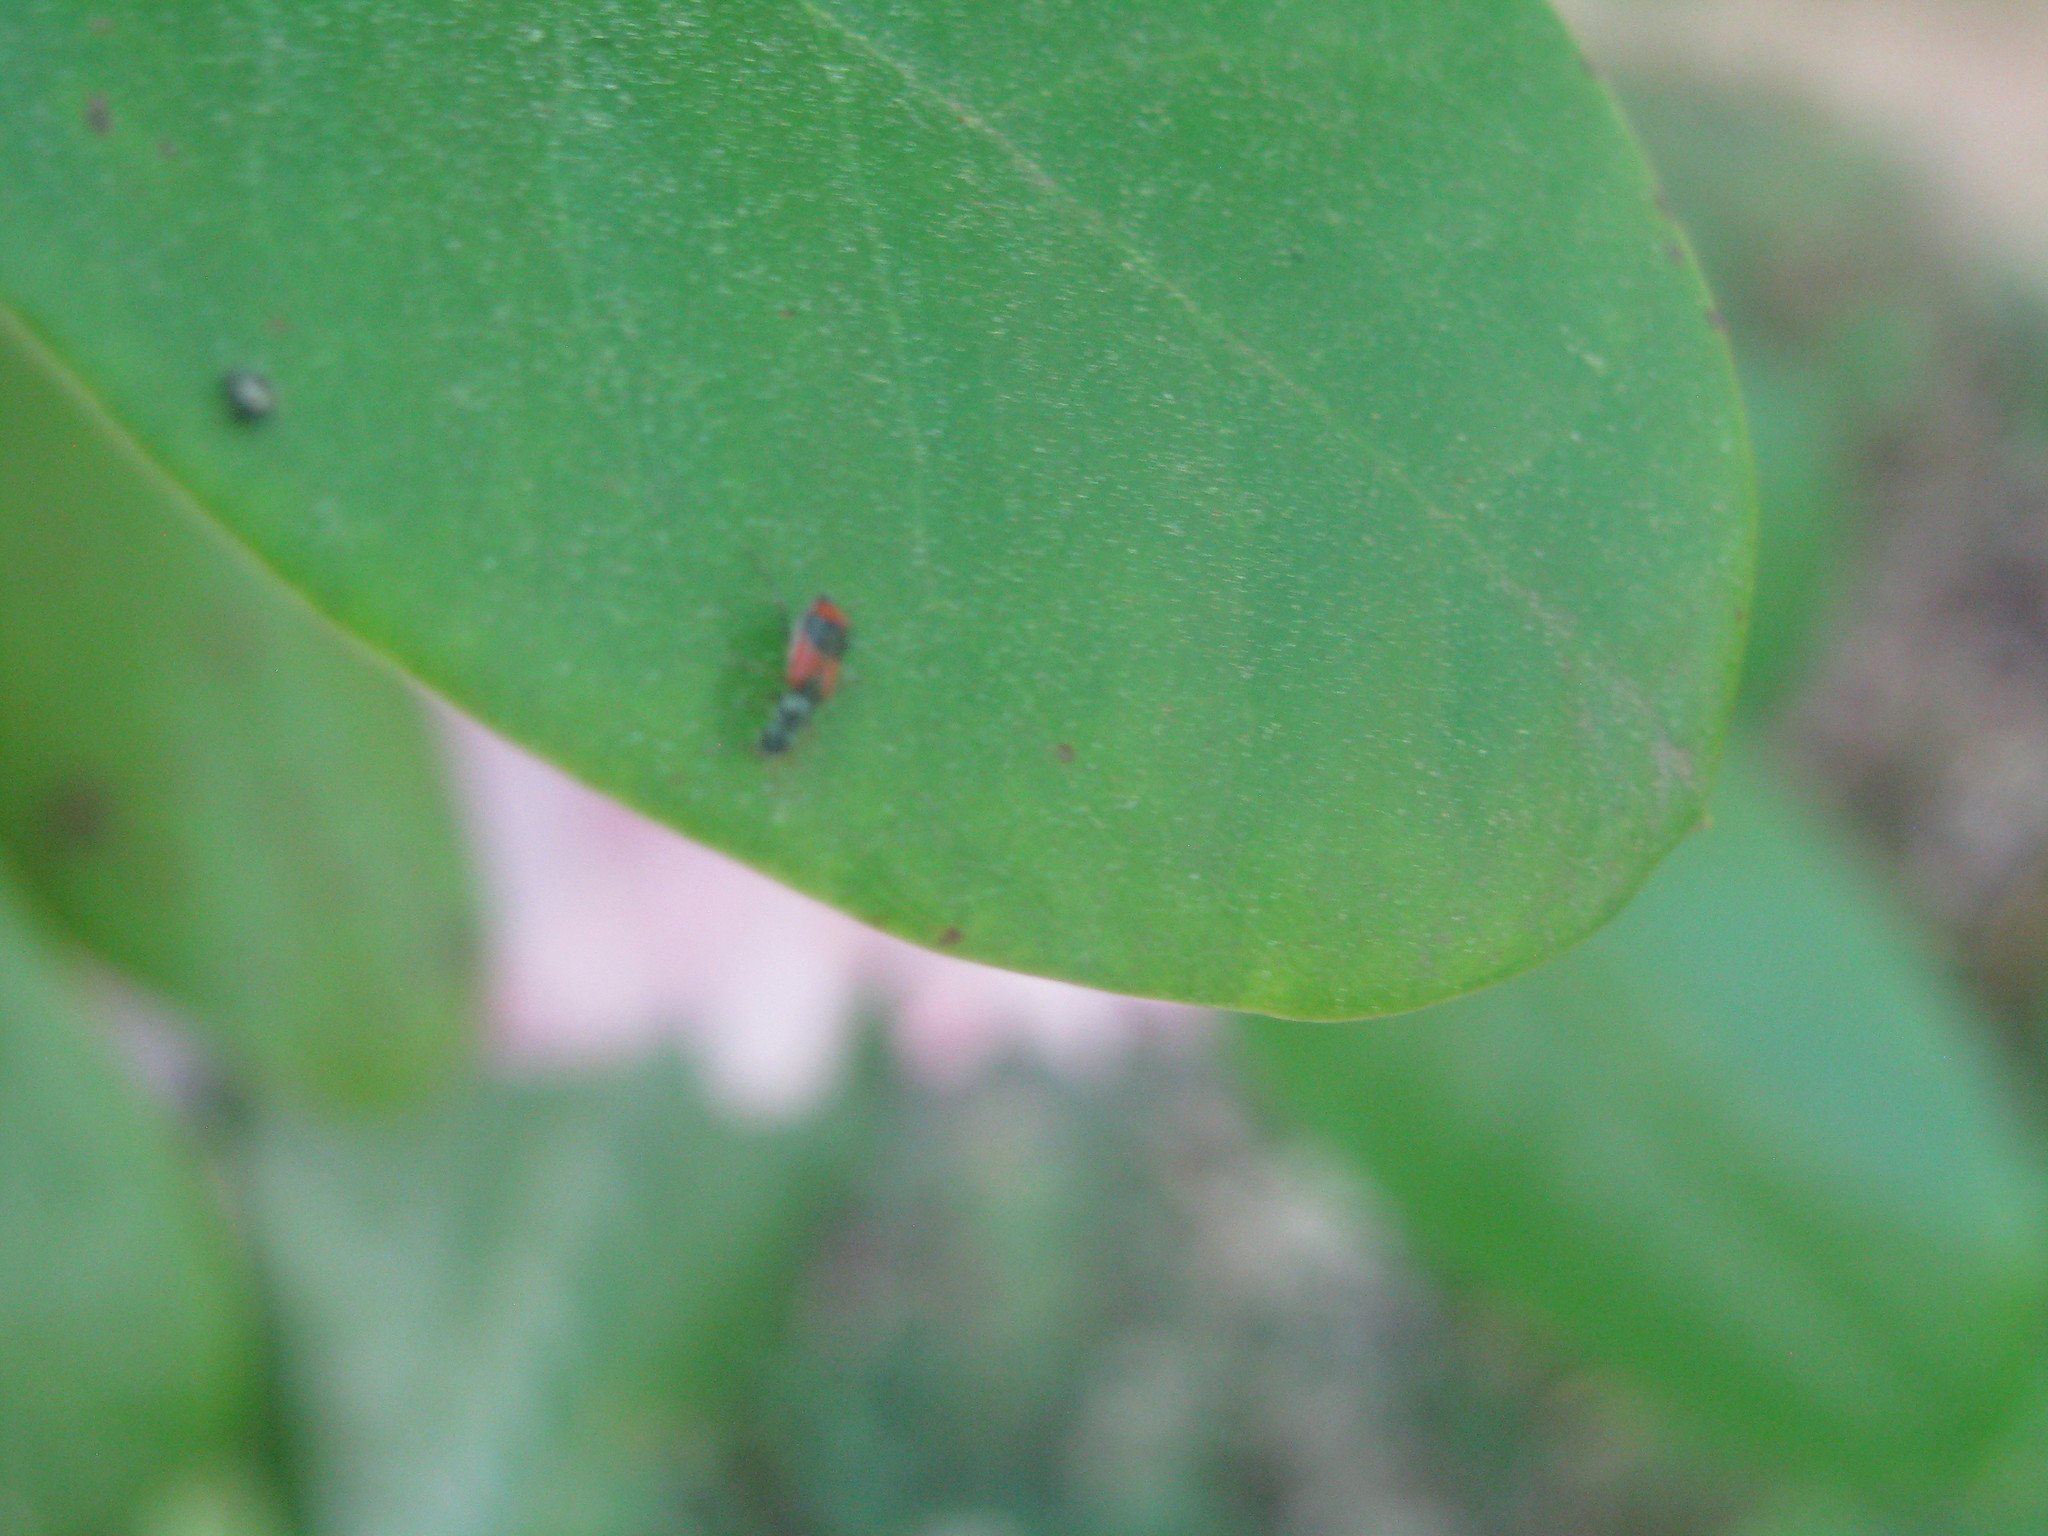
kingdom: Animalia
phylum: Arthropoda
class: Insecta
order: Coleoptera
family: Melyridae
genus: Anthocomus
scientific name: Anthocomus equestris
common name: Black-banded soft-winged flower beetle
